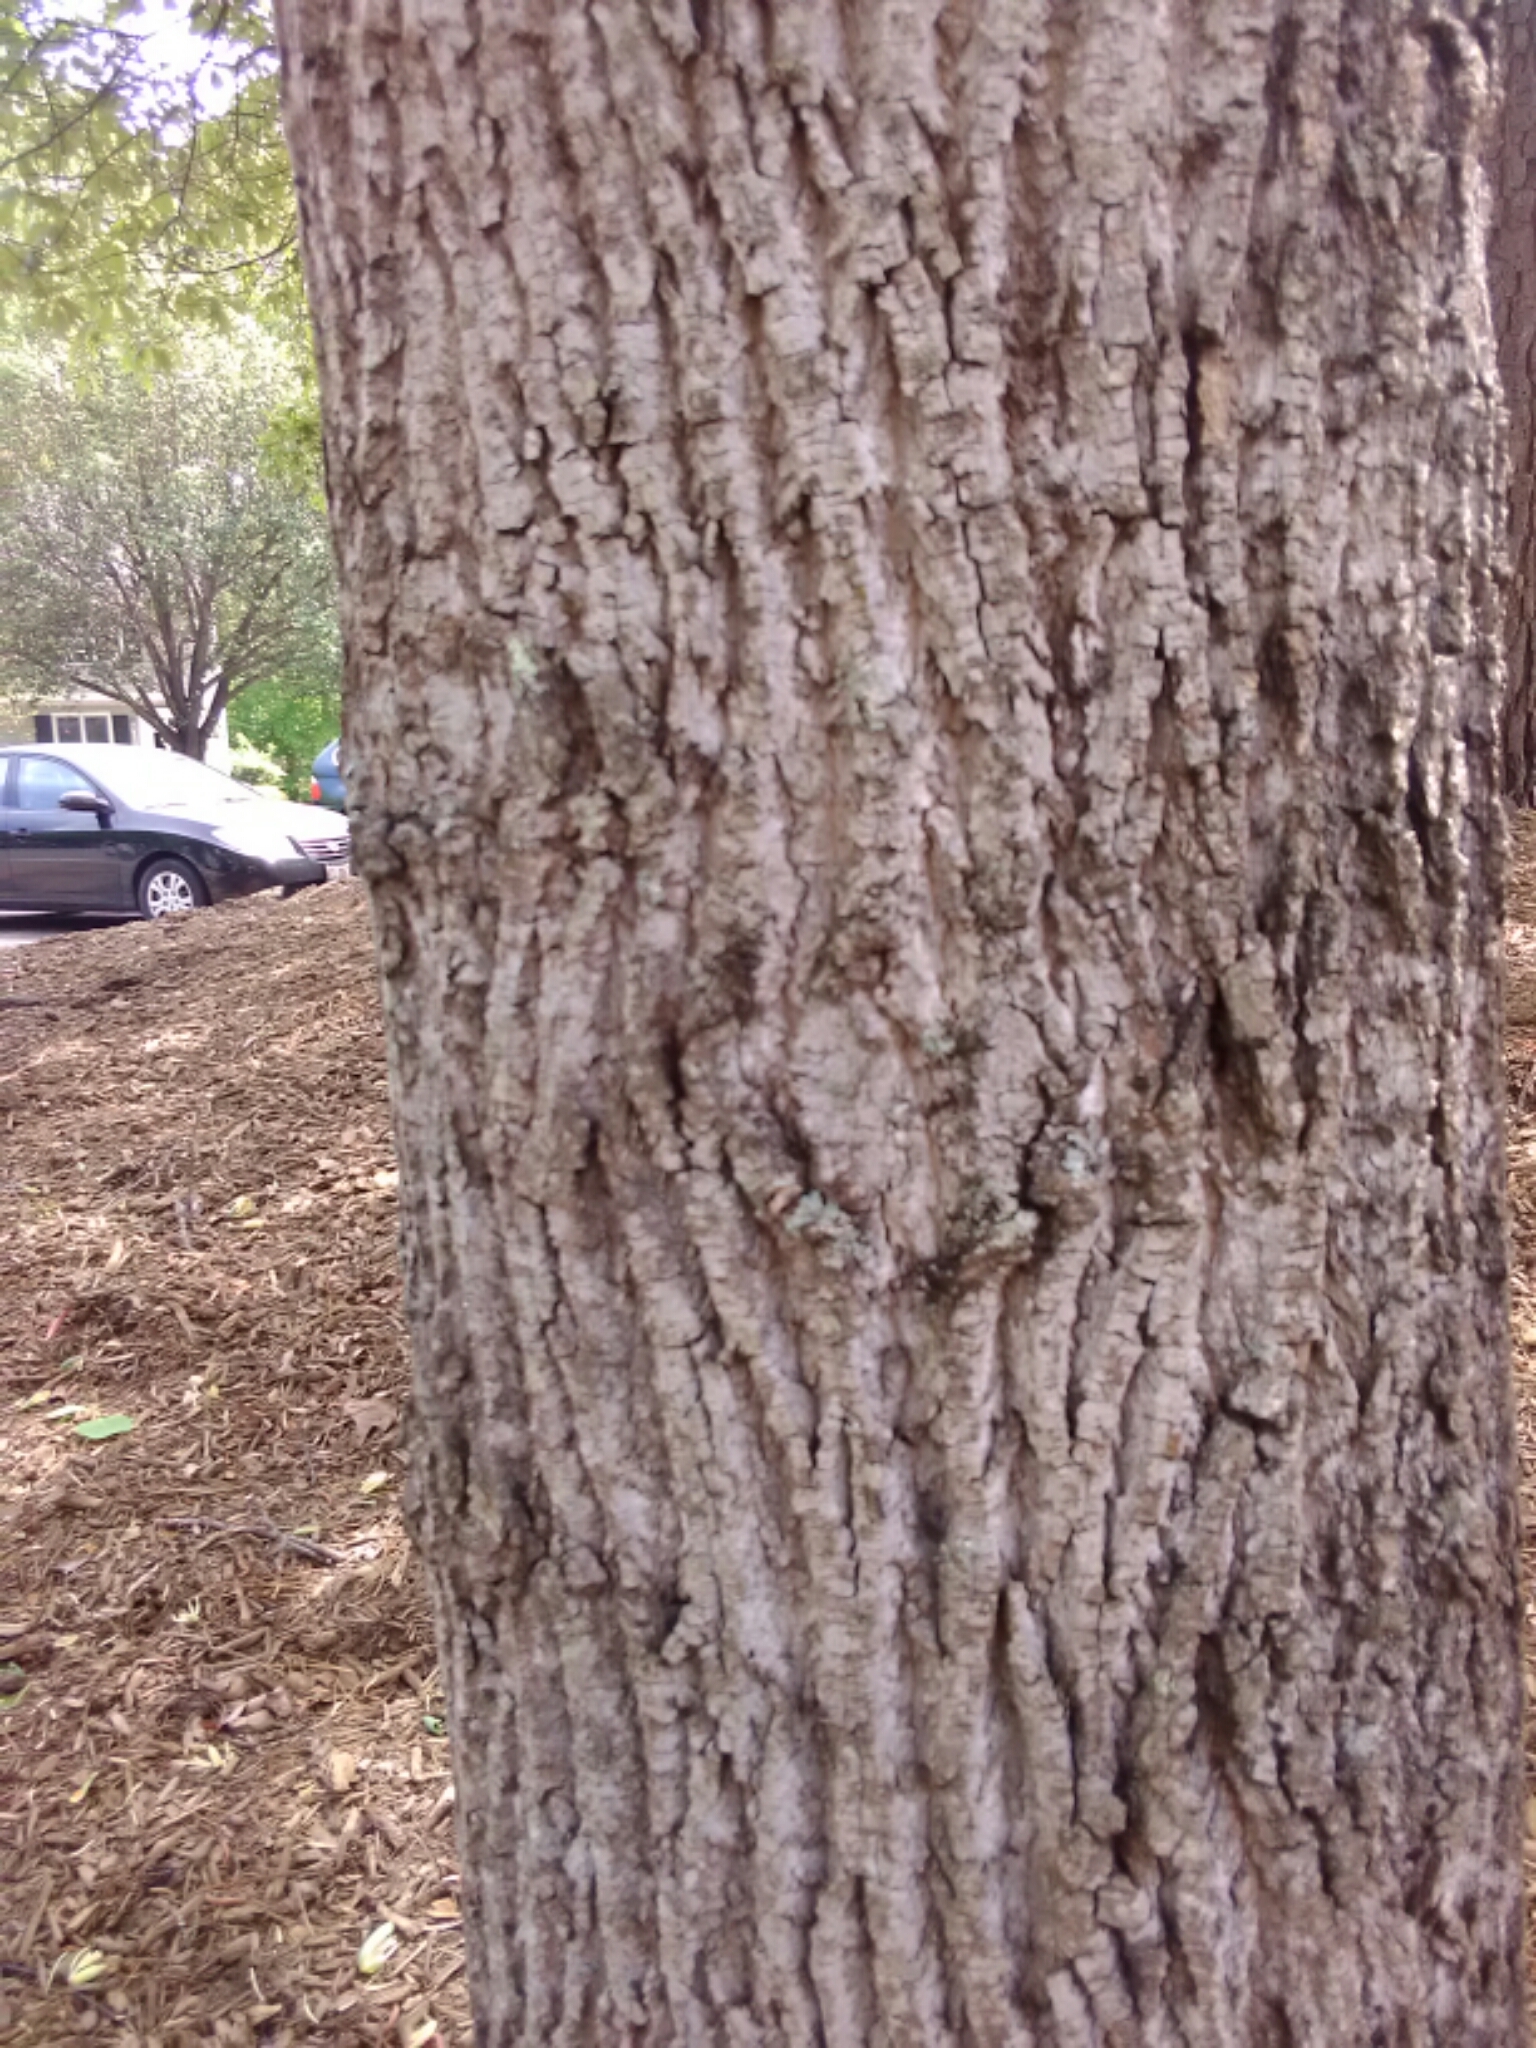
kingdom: Plantae
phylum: Tracheophyta
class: Magnoliopsida
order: Magnoliales
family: Magnoliaceae
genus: Liriodendron
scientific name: Liriodendron tulipifera
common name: Tulip tree
